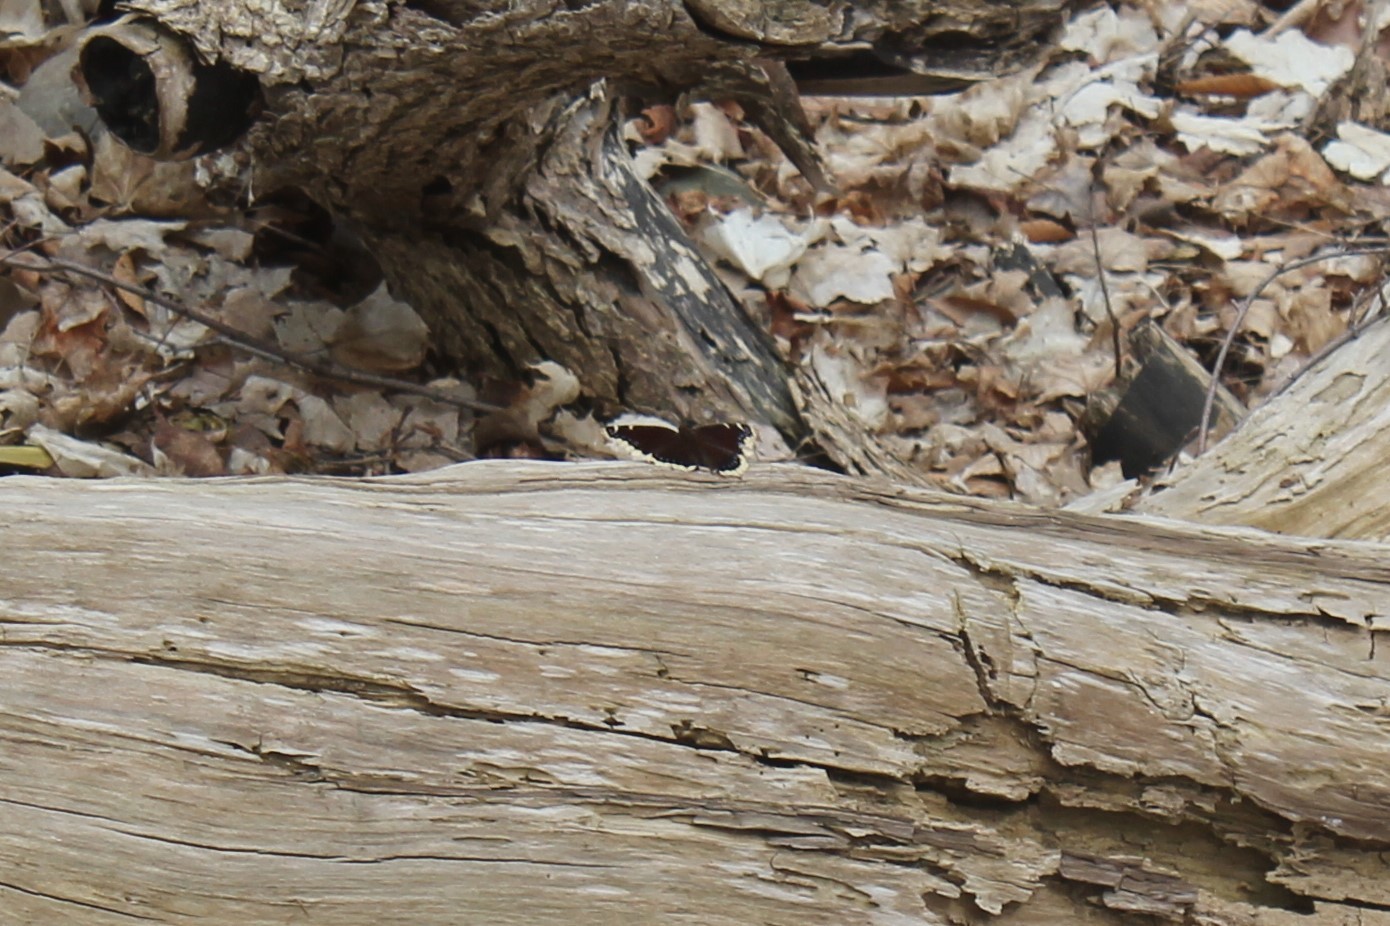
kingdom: Animalia
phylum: Arthropoda
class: Insecta
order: Lepidoptera
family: Nymphalidae
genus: Nymphalis
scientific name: Nymphalis antiopa
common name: Camberwell beauty
